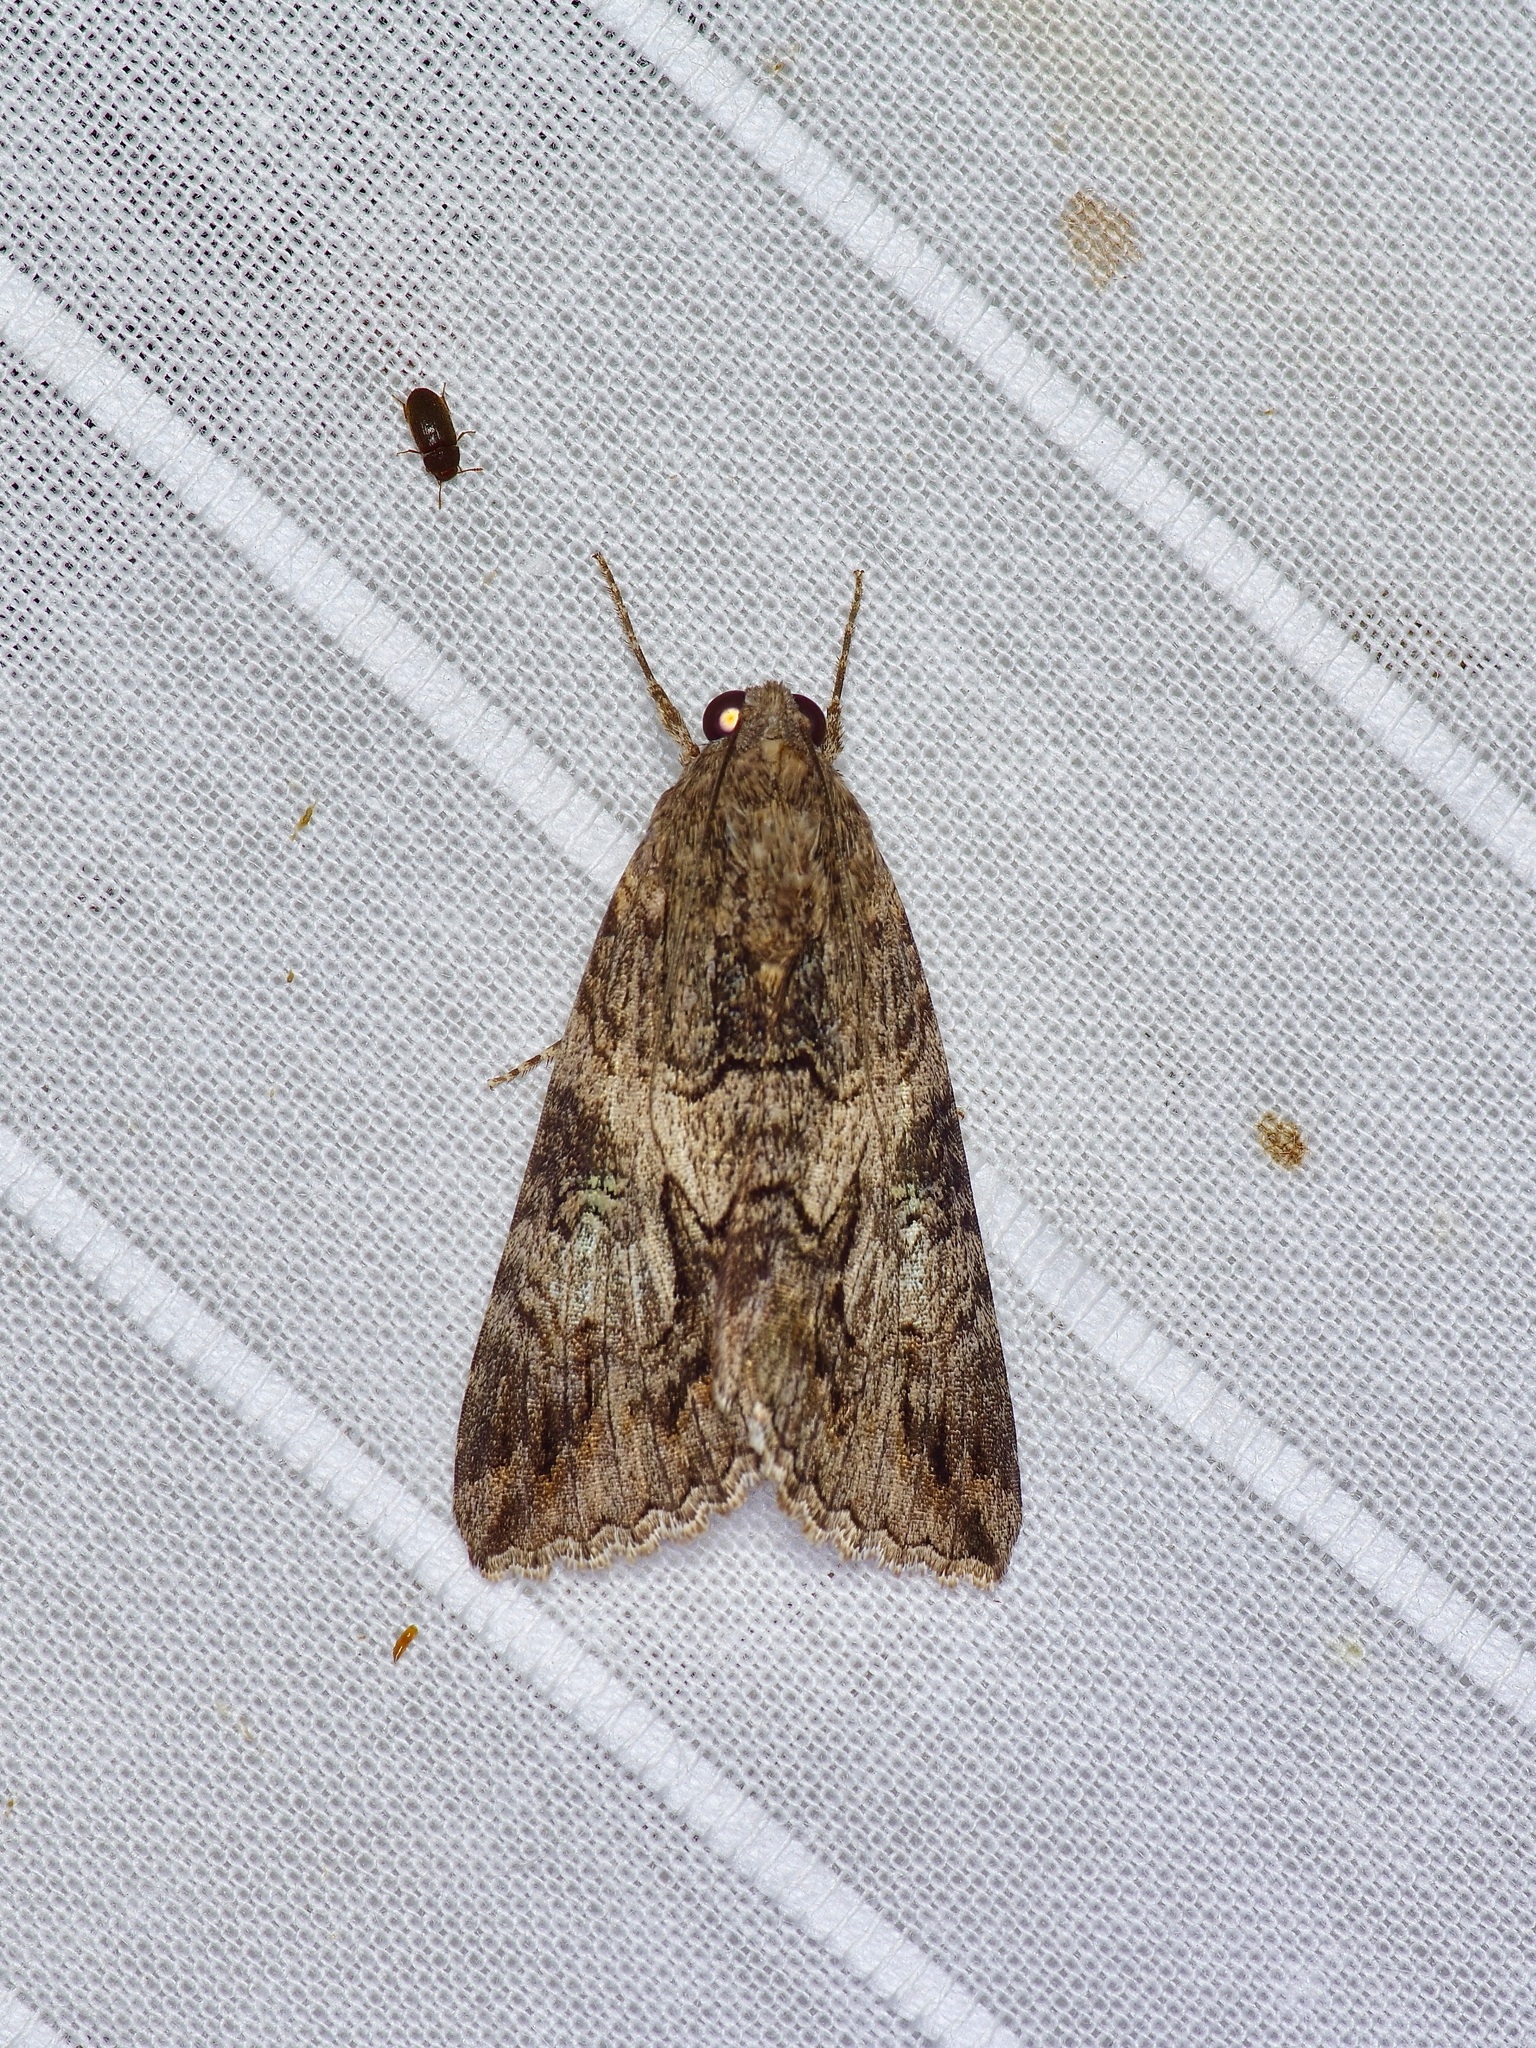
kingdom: Animalia
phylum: Arthropoda
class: Insecta
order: Lepidoptera
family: Erebidae
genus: Melipotis
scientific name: Melipotis jucunda
